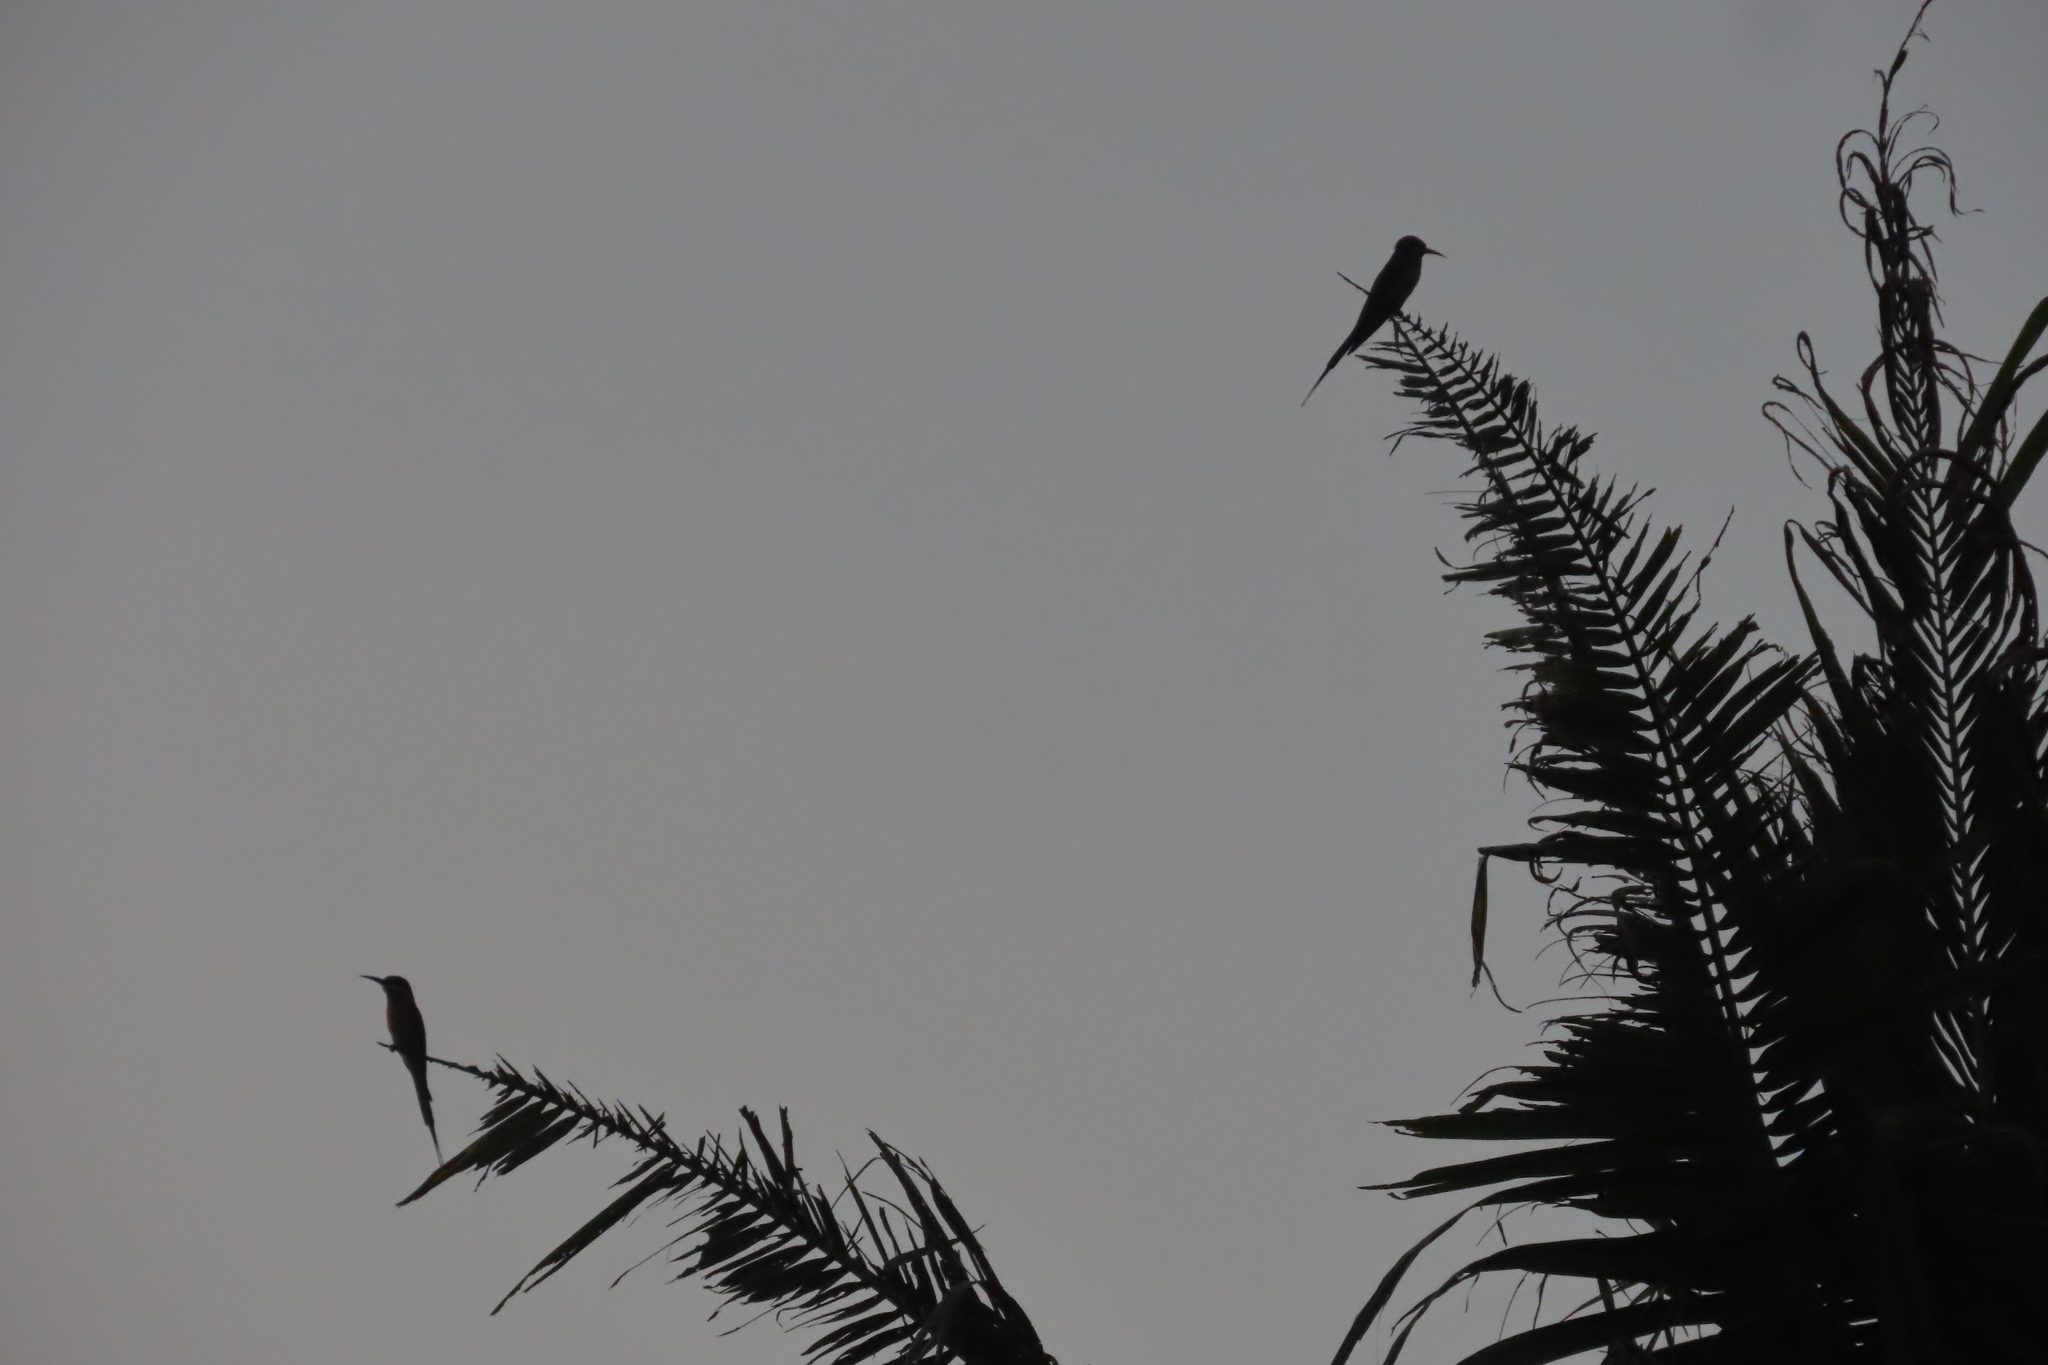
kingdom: Animalia
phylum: Chordata
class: Aves
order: Coraciiformes
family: Meropidae
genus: Merops
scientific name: Merops philippinus
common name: Blue-tailed bee-eater
